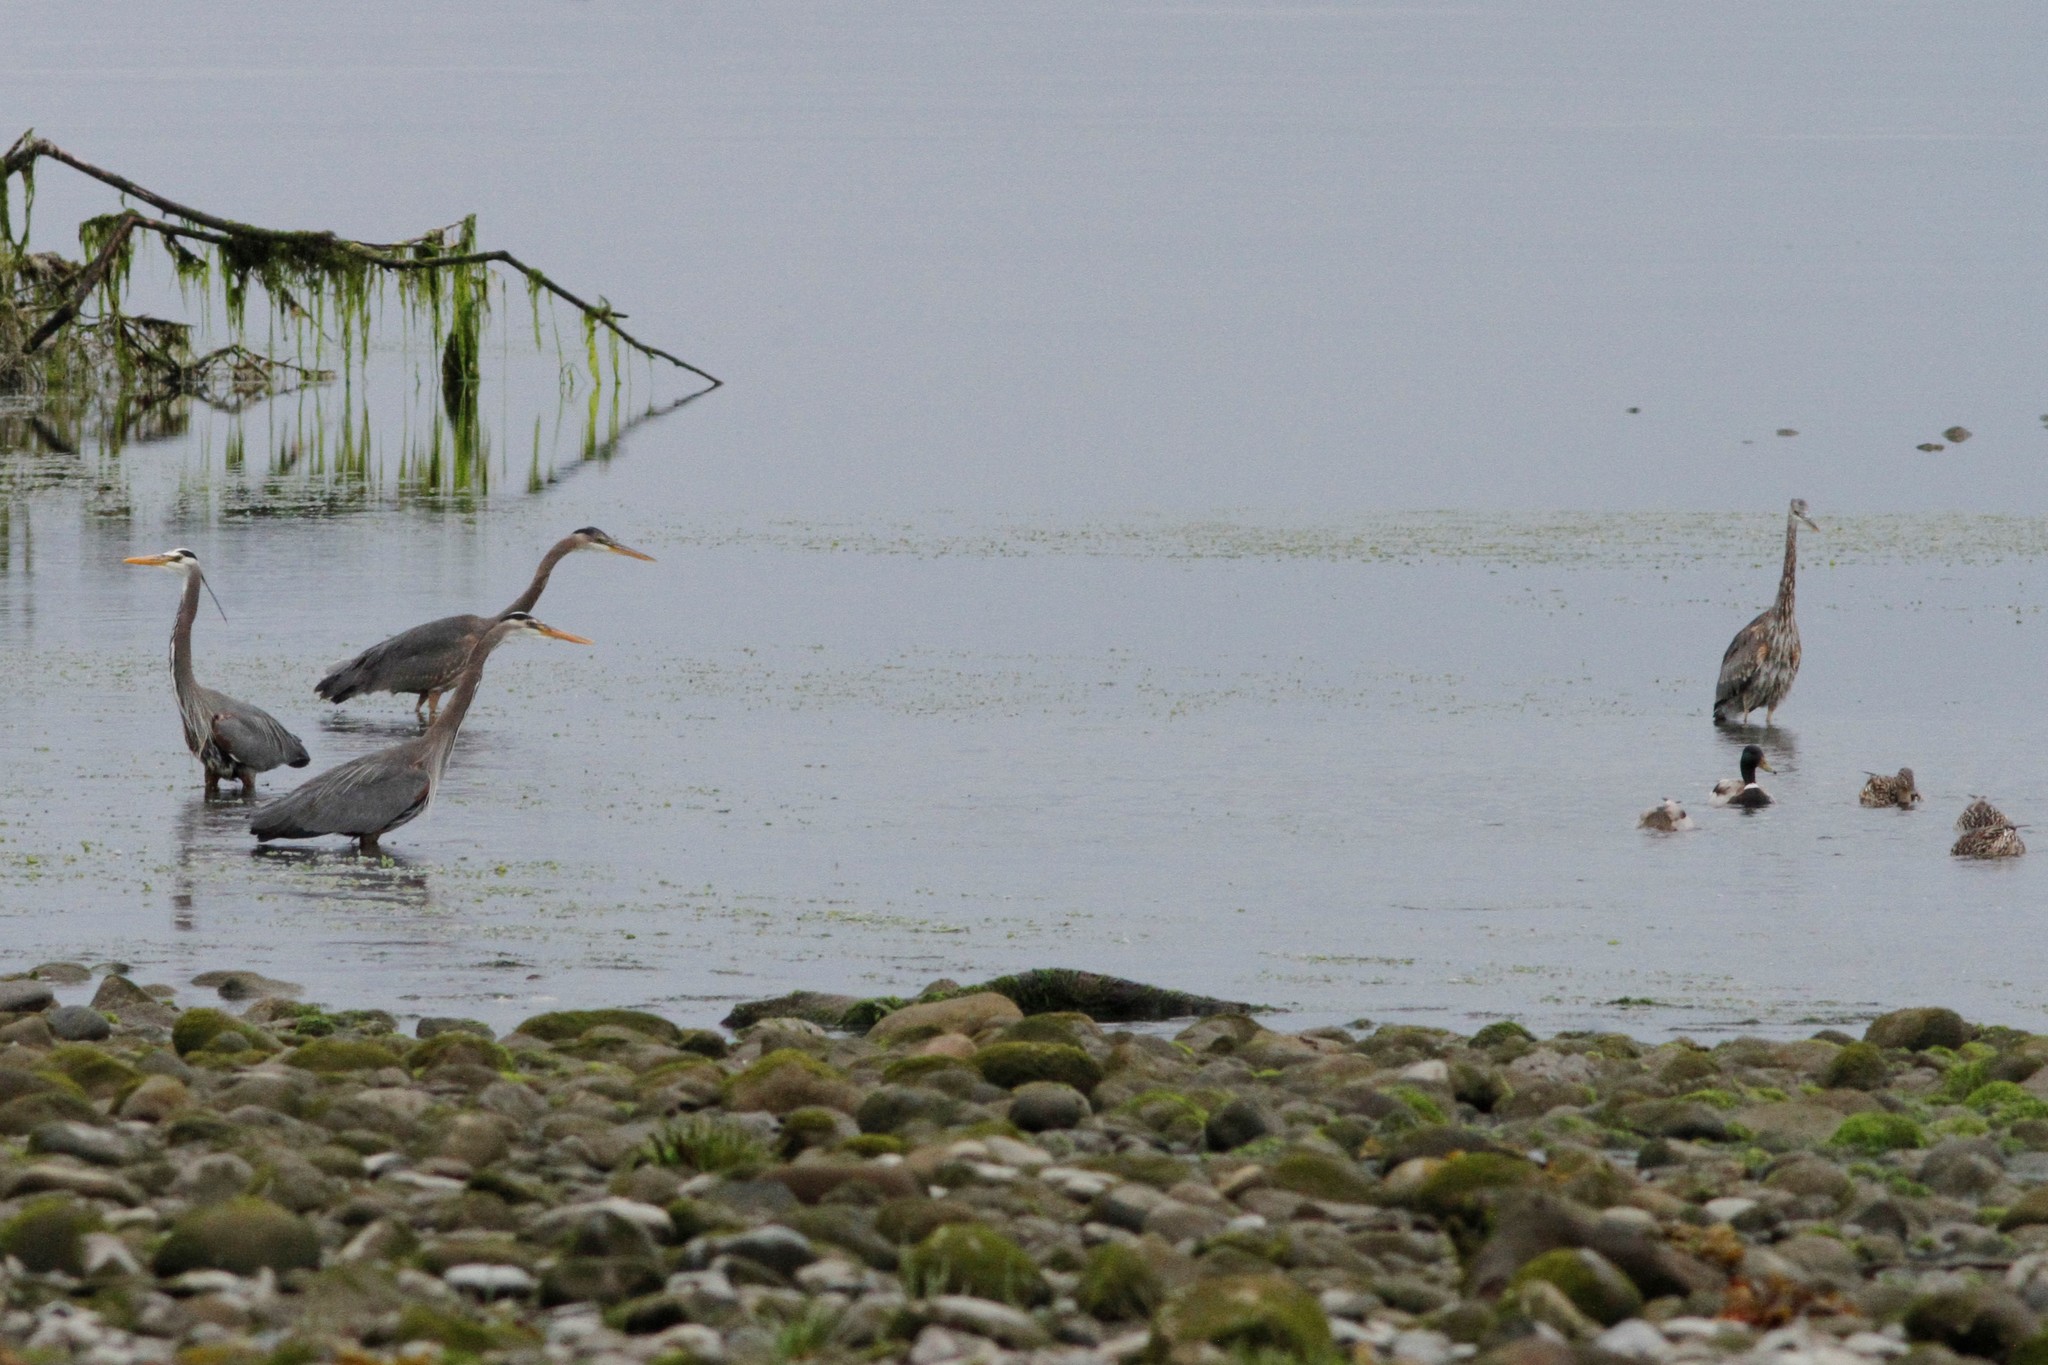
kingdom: Animalia
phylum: Chordata
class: Aves
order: Pelecaniformes
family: Ardeidae
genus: Ardea
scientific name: Ardea herodias
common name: Great blue heron
